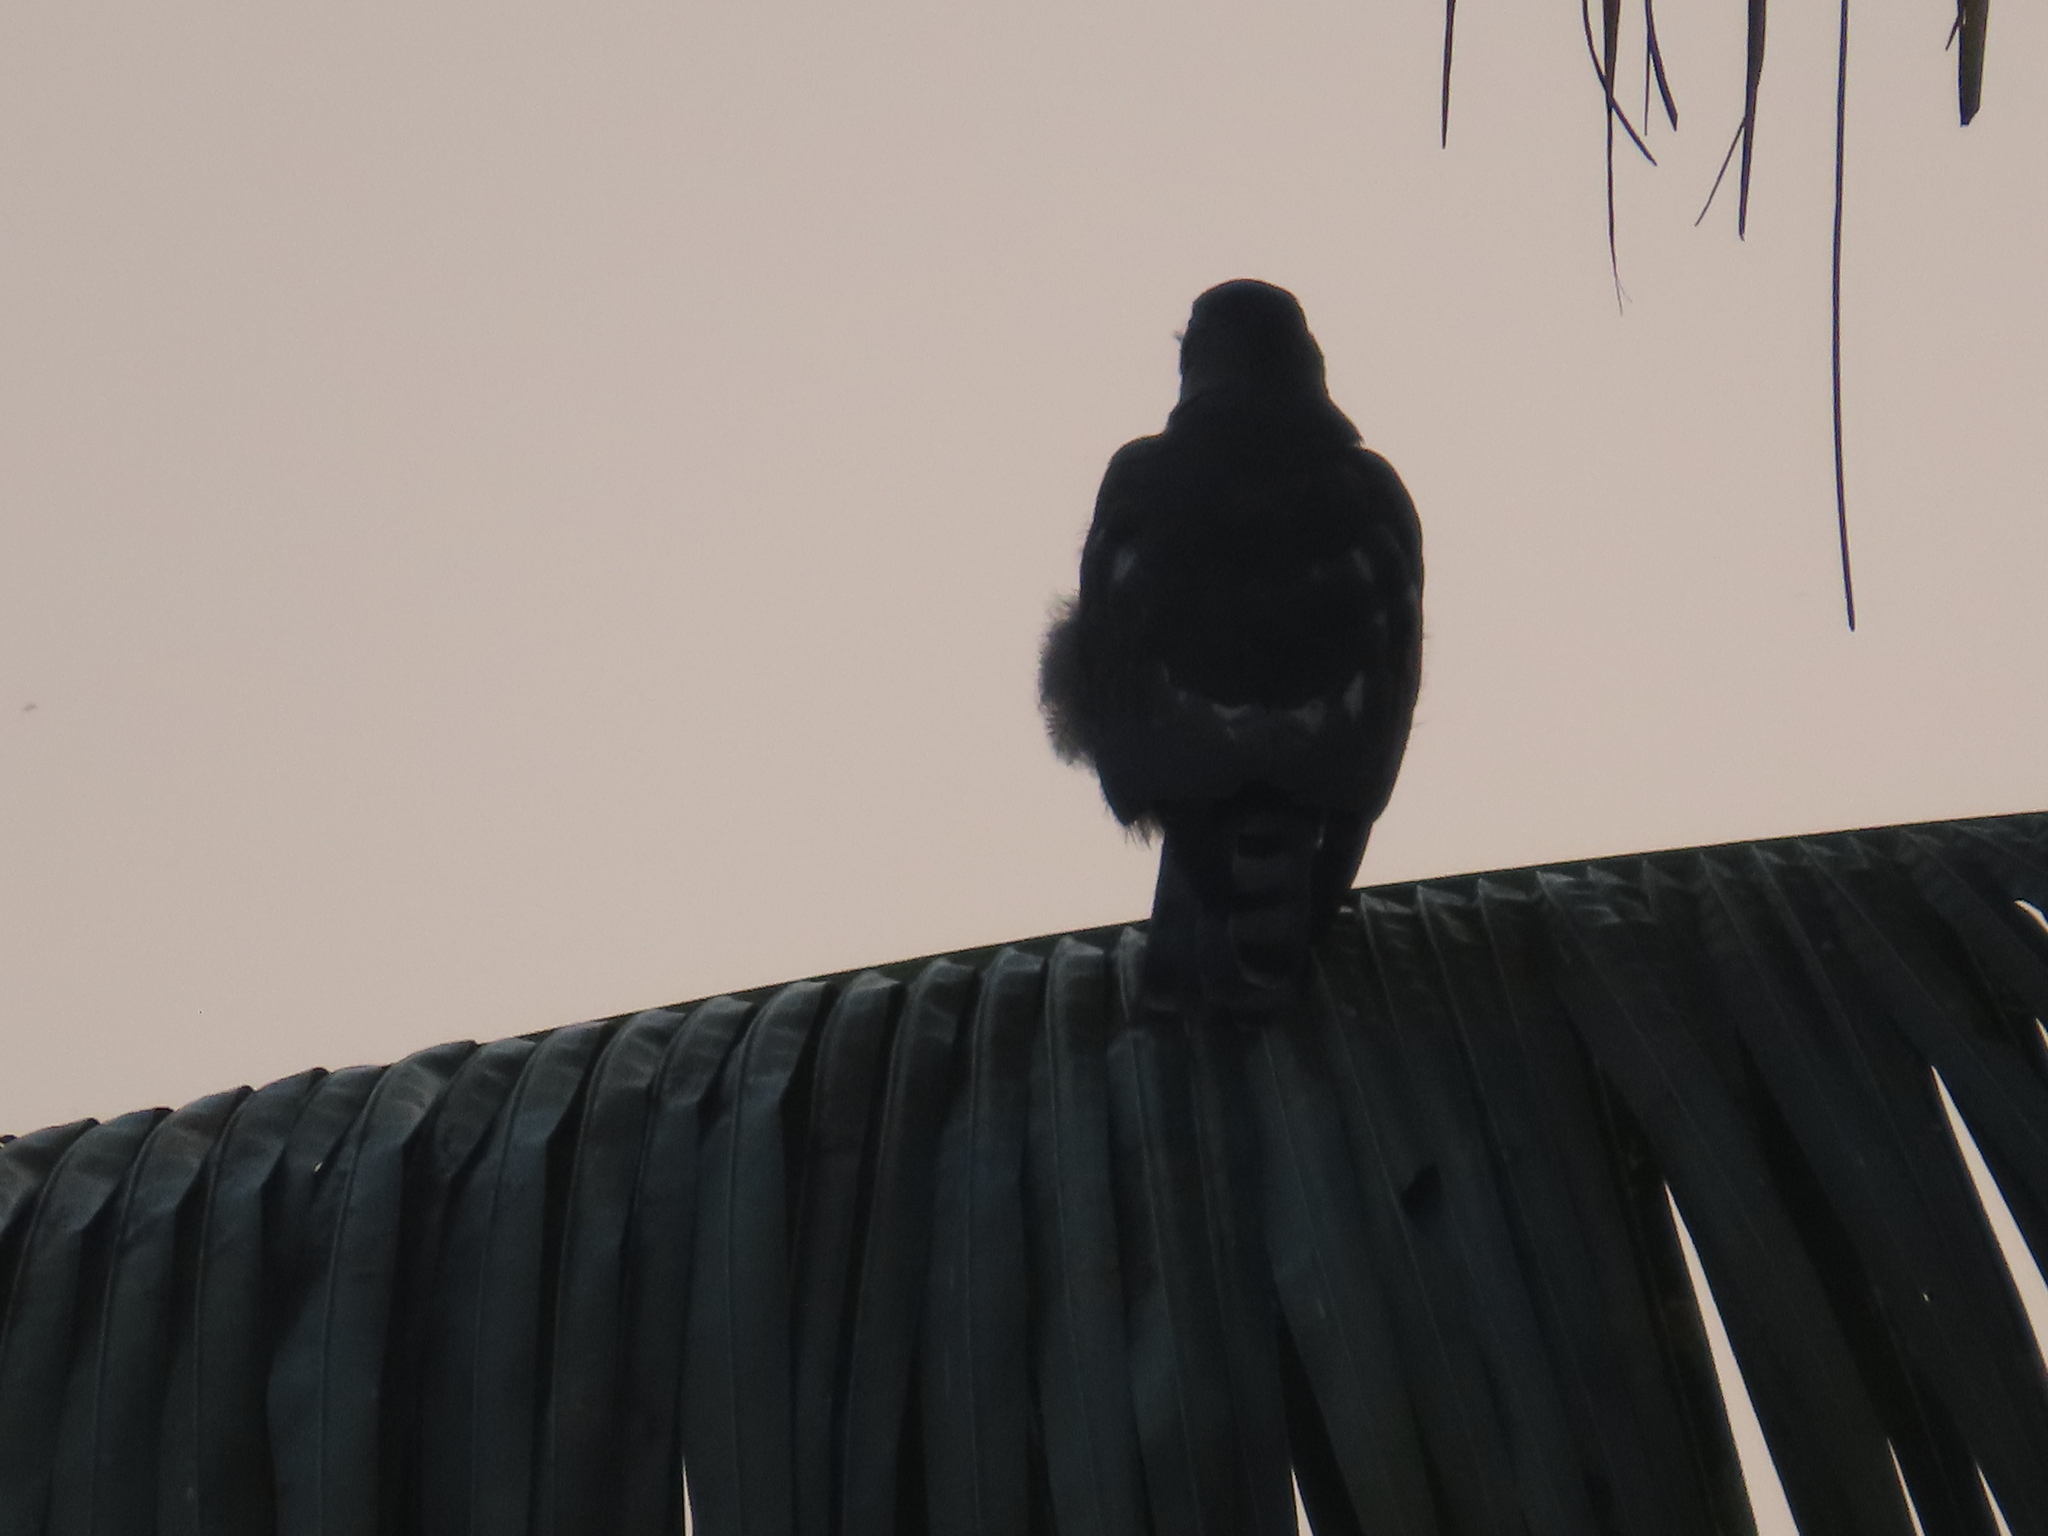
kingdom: Animalia
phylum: Chordata
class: Aves
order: Accipitriformes
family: Accipitridae
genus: Accipiter
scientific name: Accipiter badius
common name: Shikra
